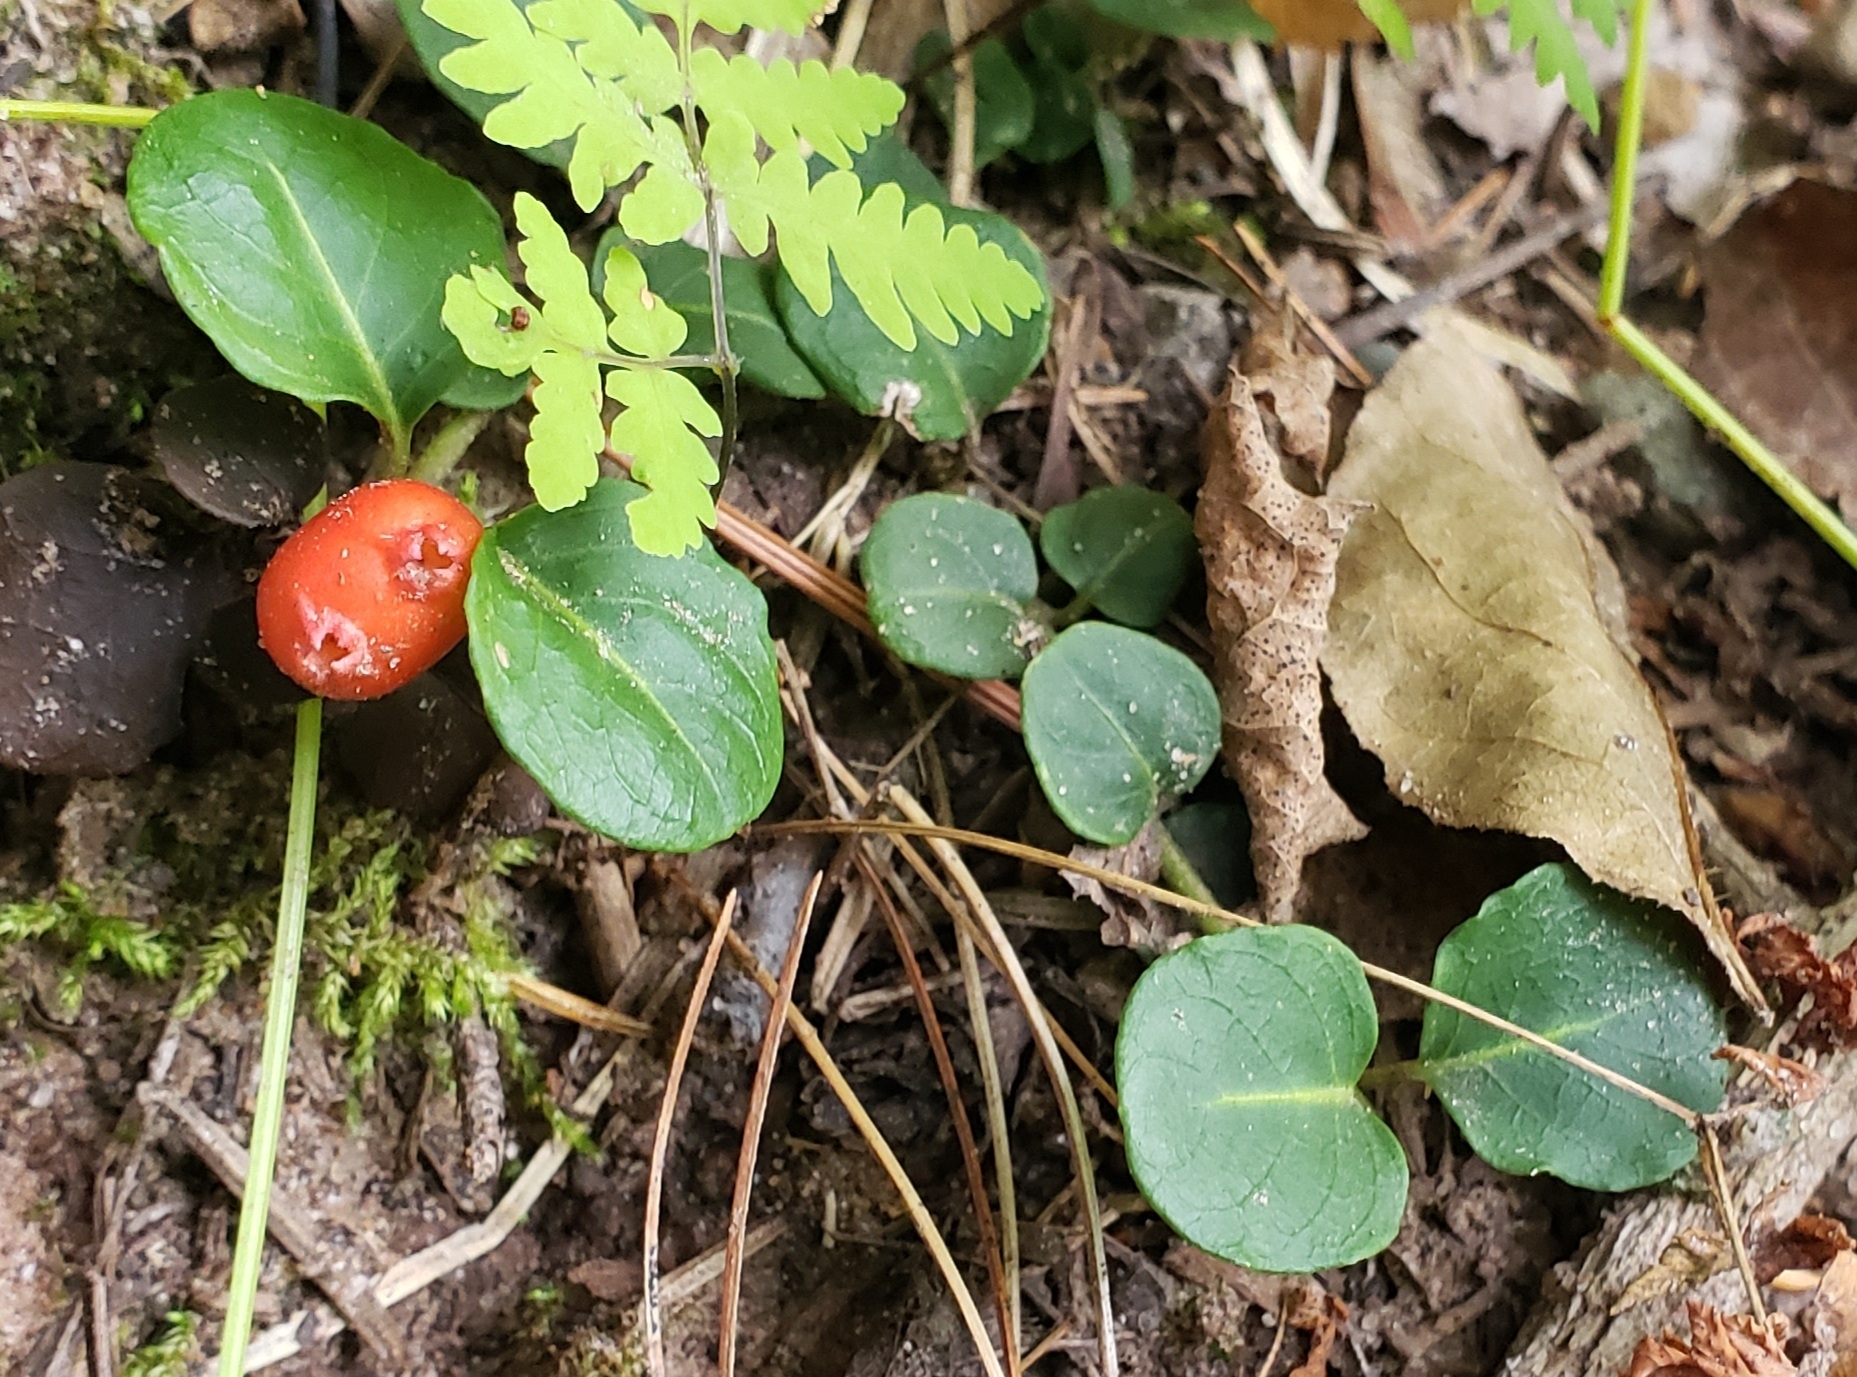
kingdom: Plantae
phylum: Tracheophyta
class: Magnoliopsida
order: Gentianales
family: Rubiaceae
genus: Mitchella
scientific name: Mitchella repens
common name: Partridge-berry
